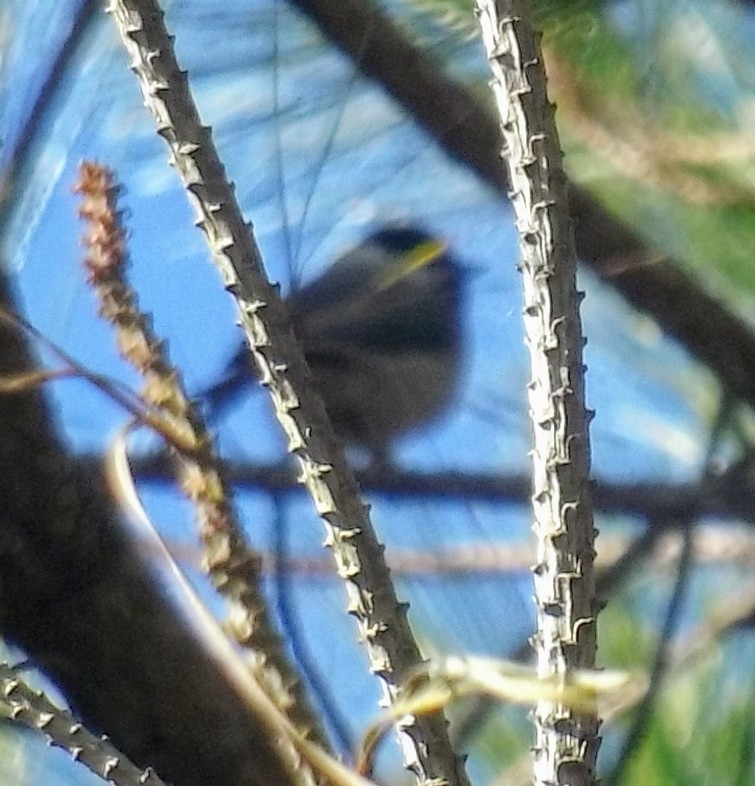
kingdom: Animalia
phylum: Chordata
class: Aves
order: Passeriformes
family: Paridae
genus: Poecile
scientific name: Poecile carolinensis
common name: Carolina chickadee
